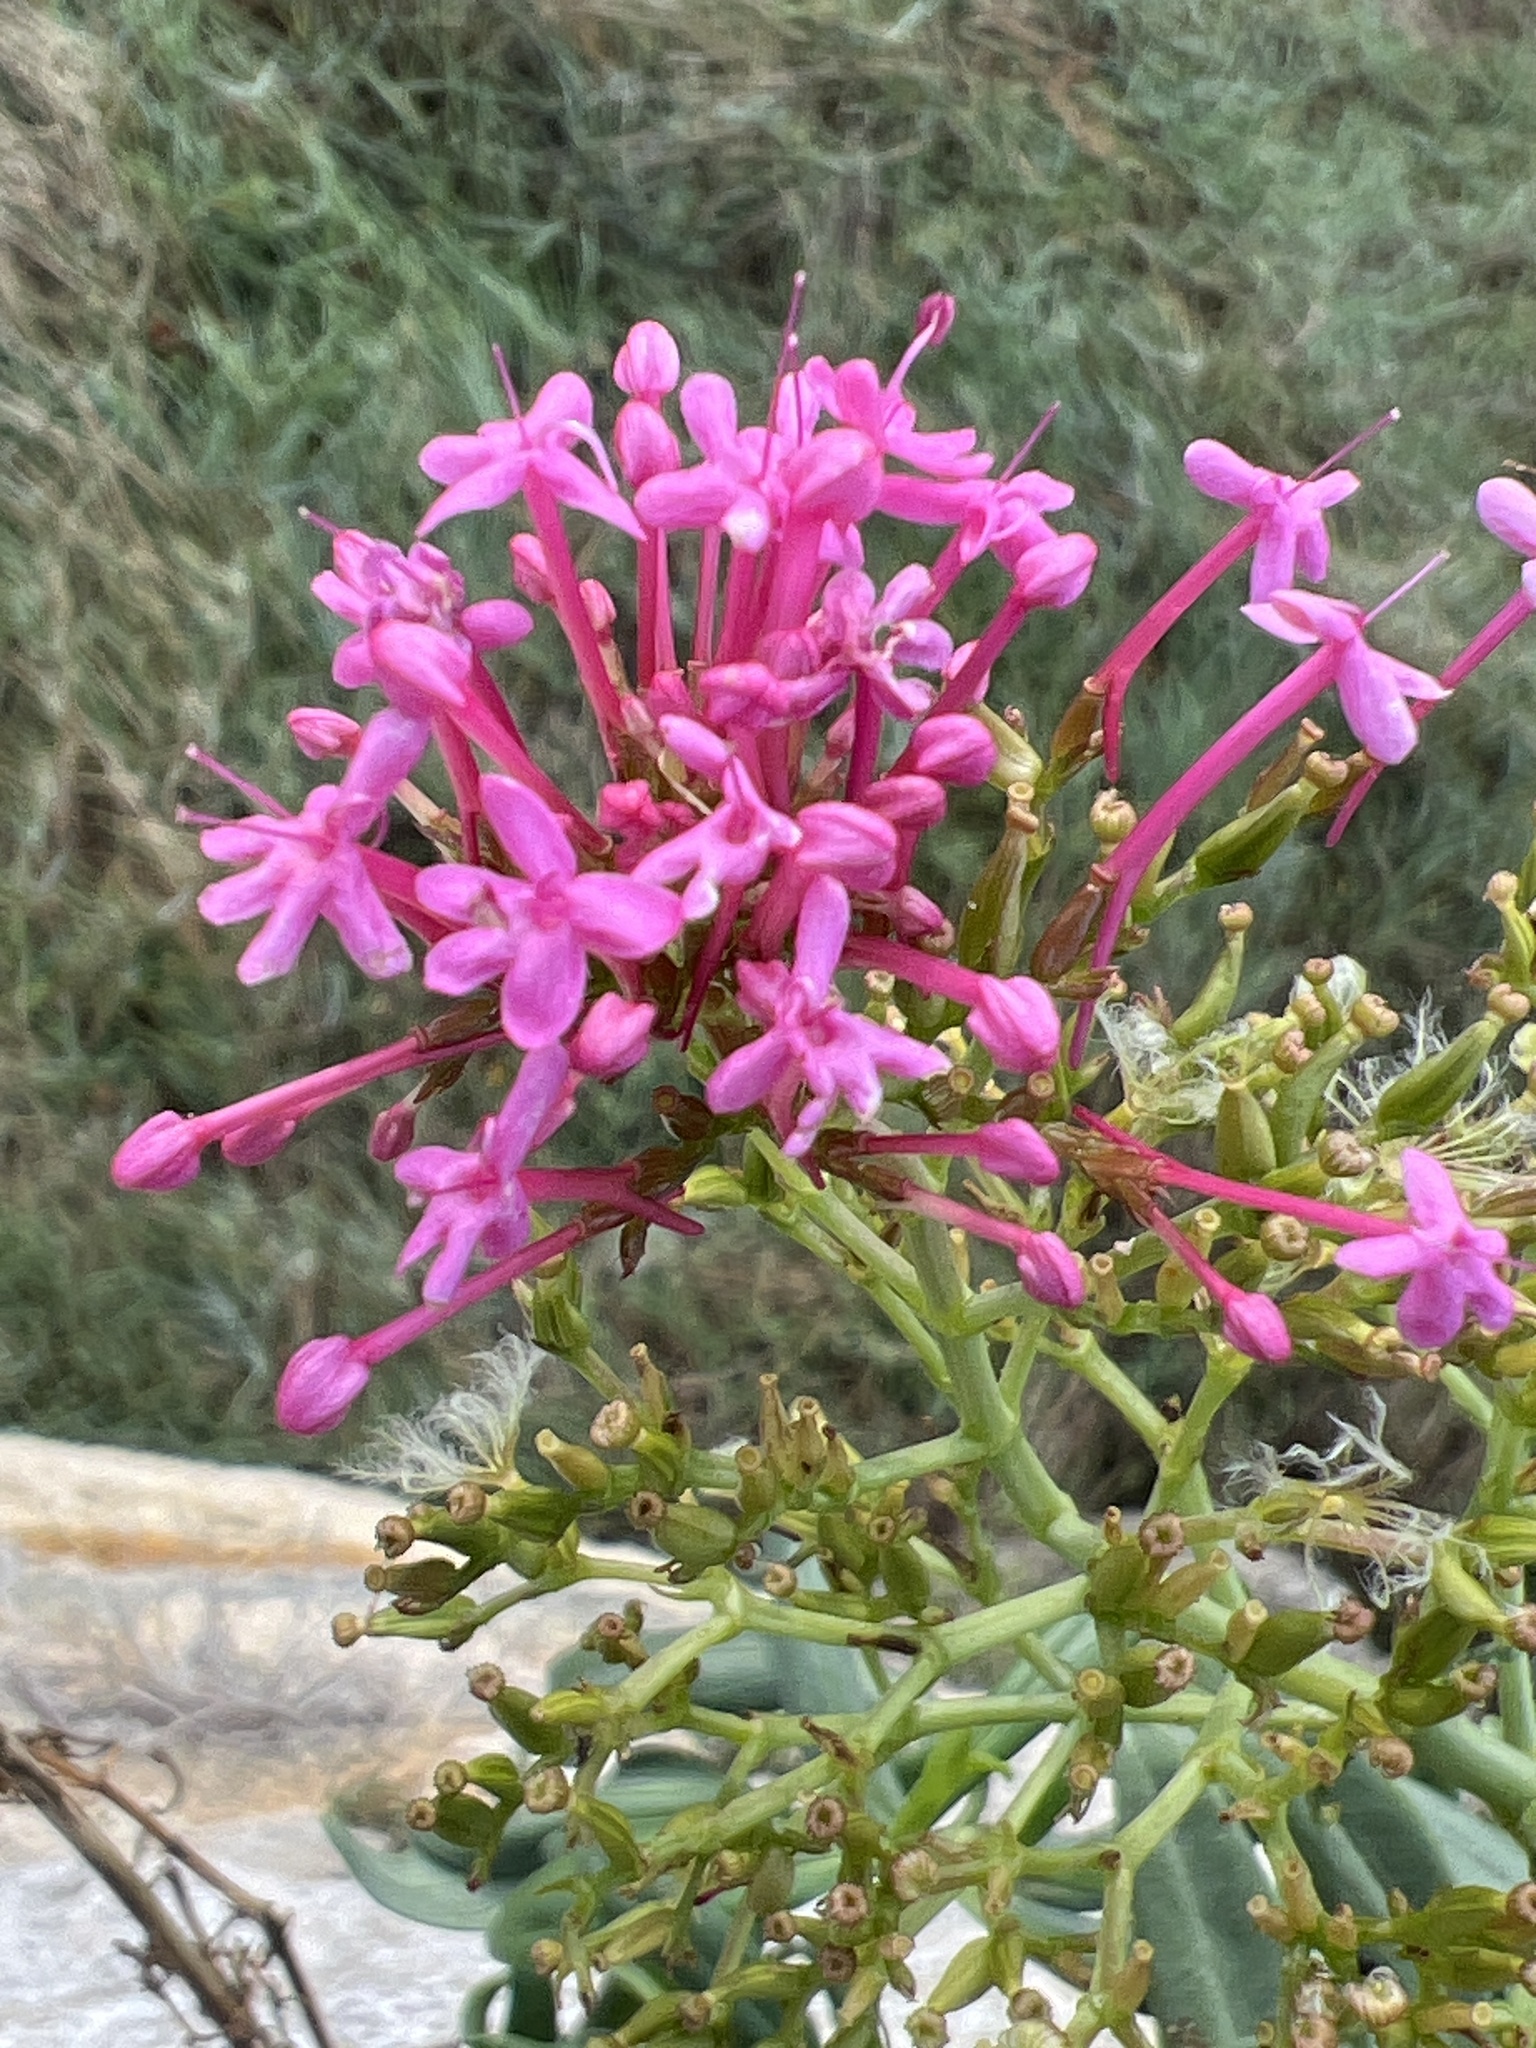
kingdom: Plantae
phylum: Tracheophyta
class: Magnoliopsida
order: Dipsacales
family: Caprifoliaceae
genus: Centranthus
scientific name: Centranthus ruber
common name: Red valerian
